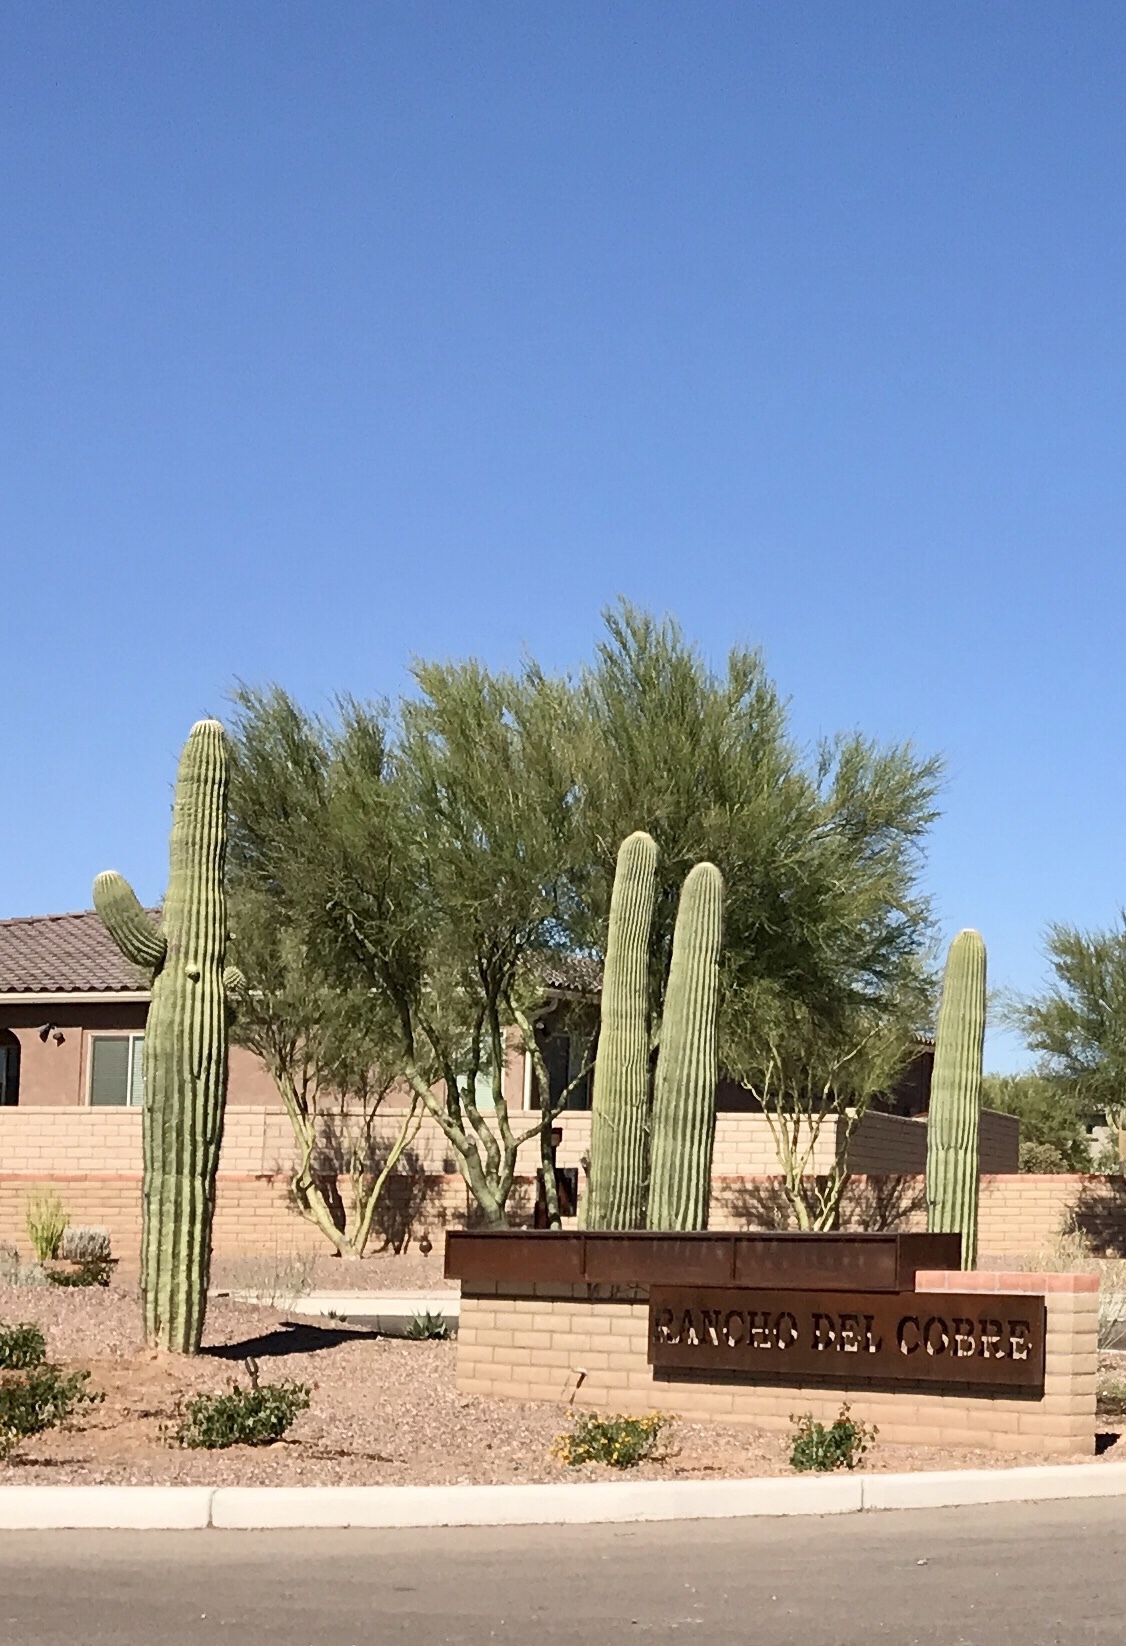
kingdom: Plantae
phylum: Tracheophyta
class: Magnoliopsida
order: Caryophyllales
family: Cactaceae
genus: Carnegiea
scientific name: Carnegiea gigantea
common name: Saguaro
